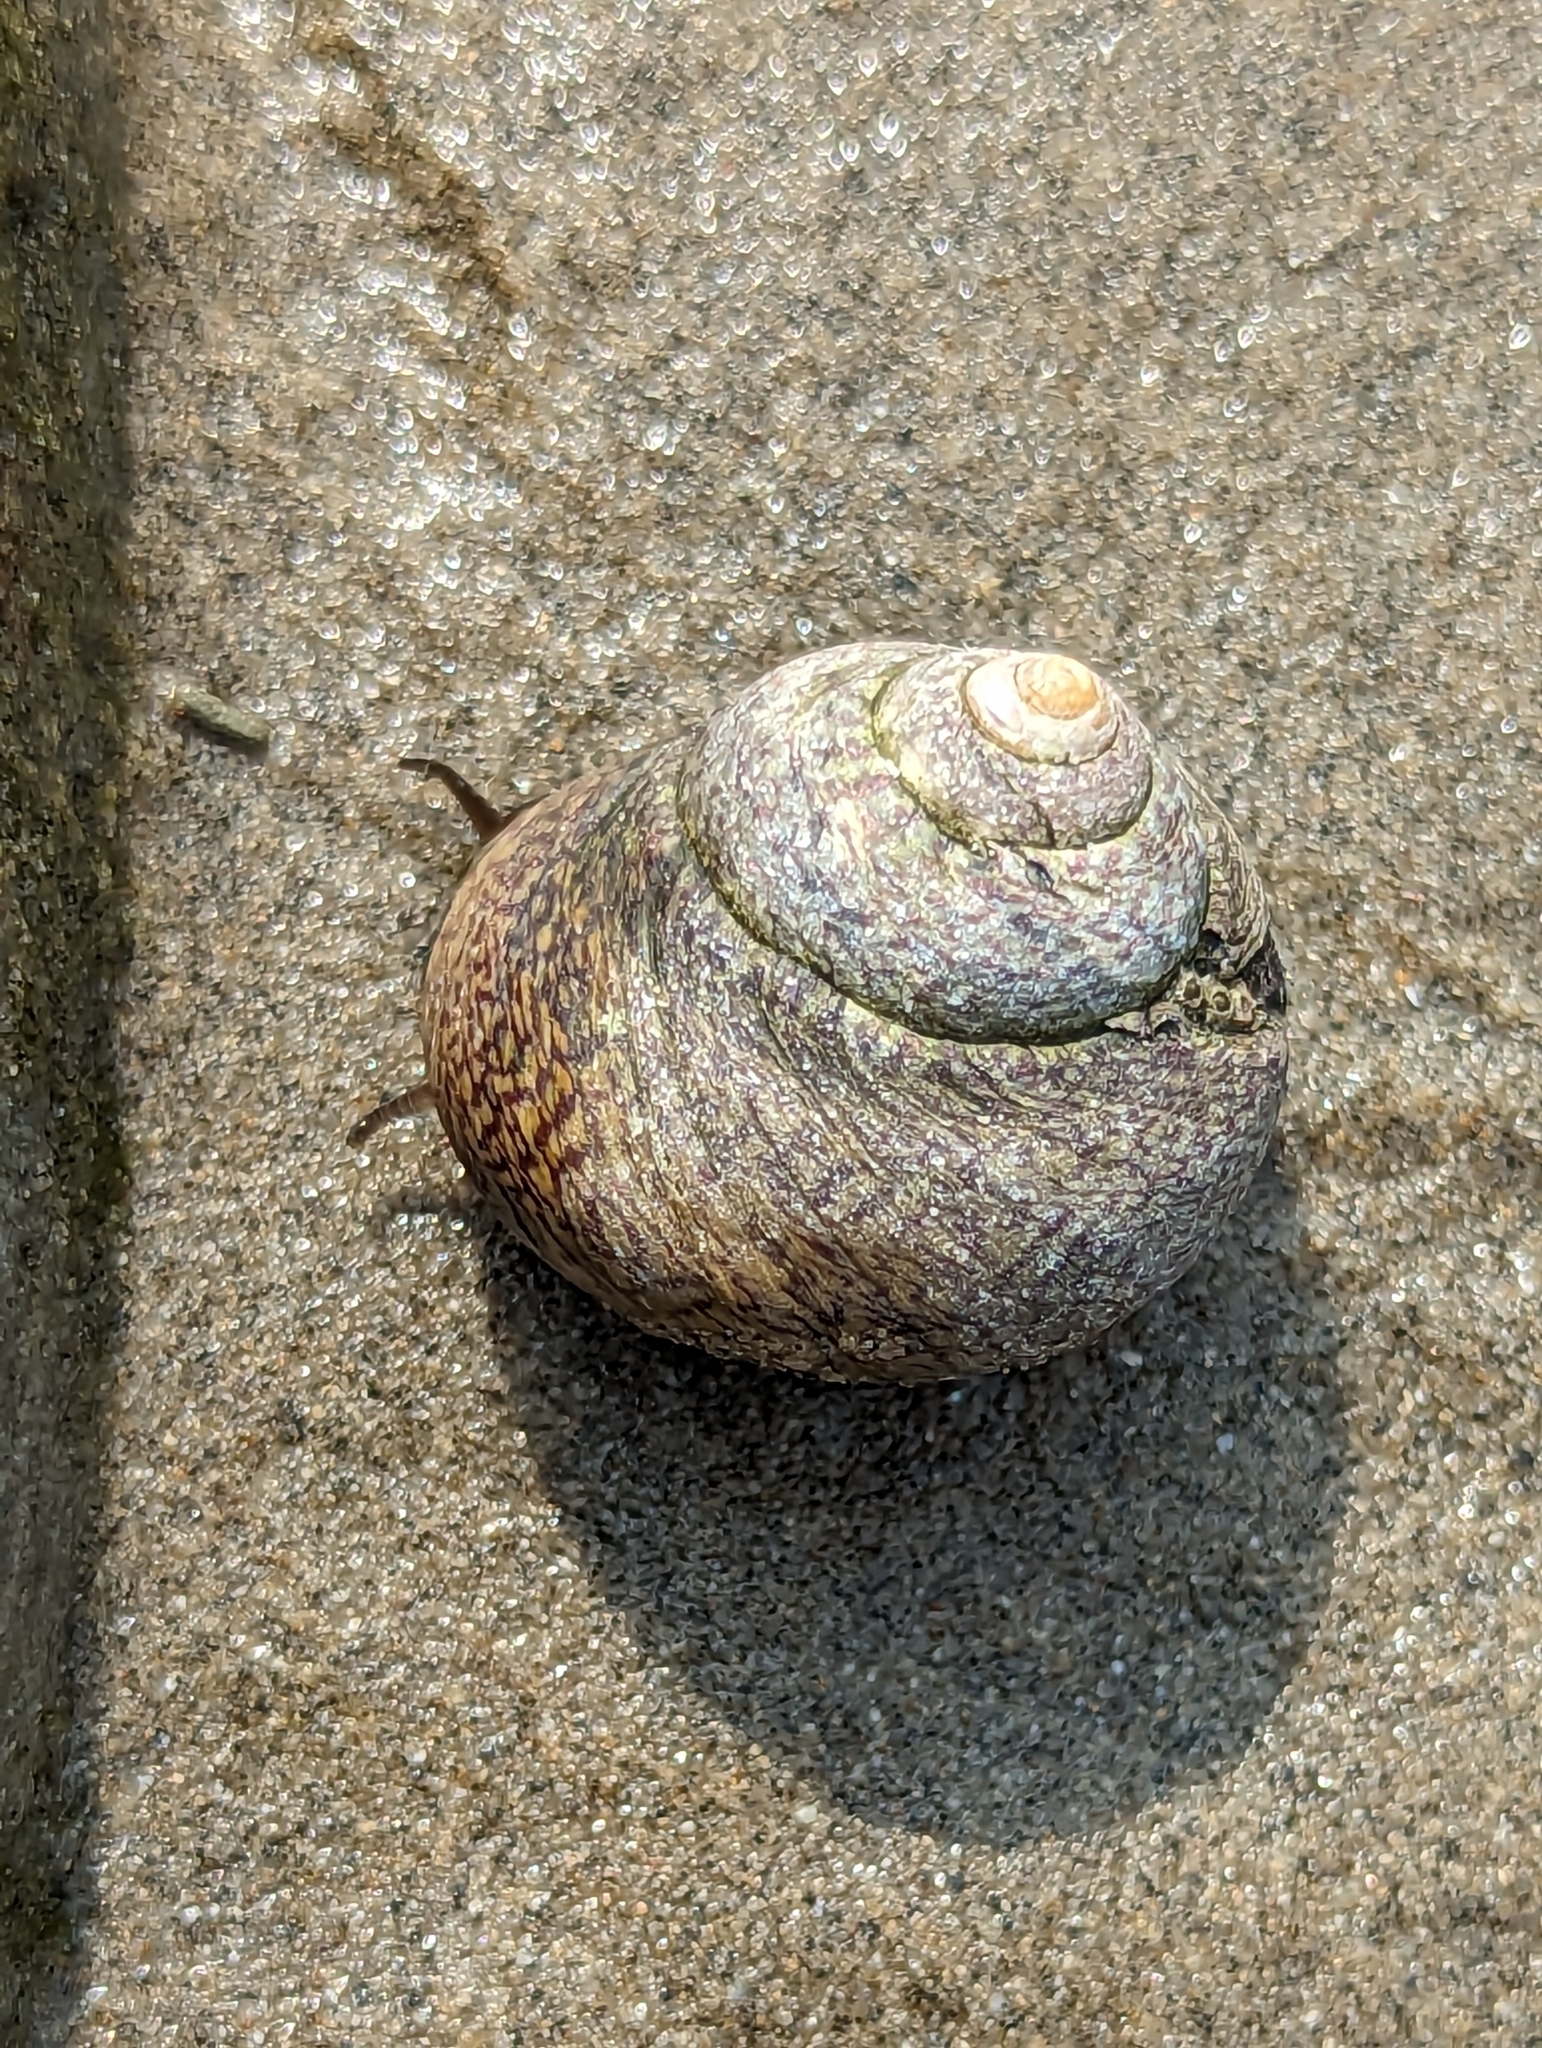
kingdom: Animalia
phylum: Mollusca
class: Gastropoda
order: Trochida
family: Trochidae
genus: Phorcus
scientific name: Phorcus lineatus
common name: Toothed top shell
